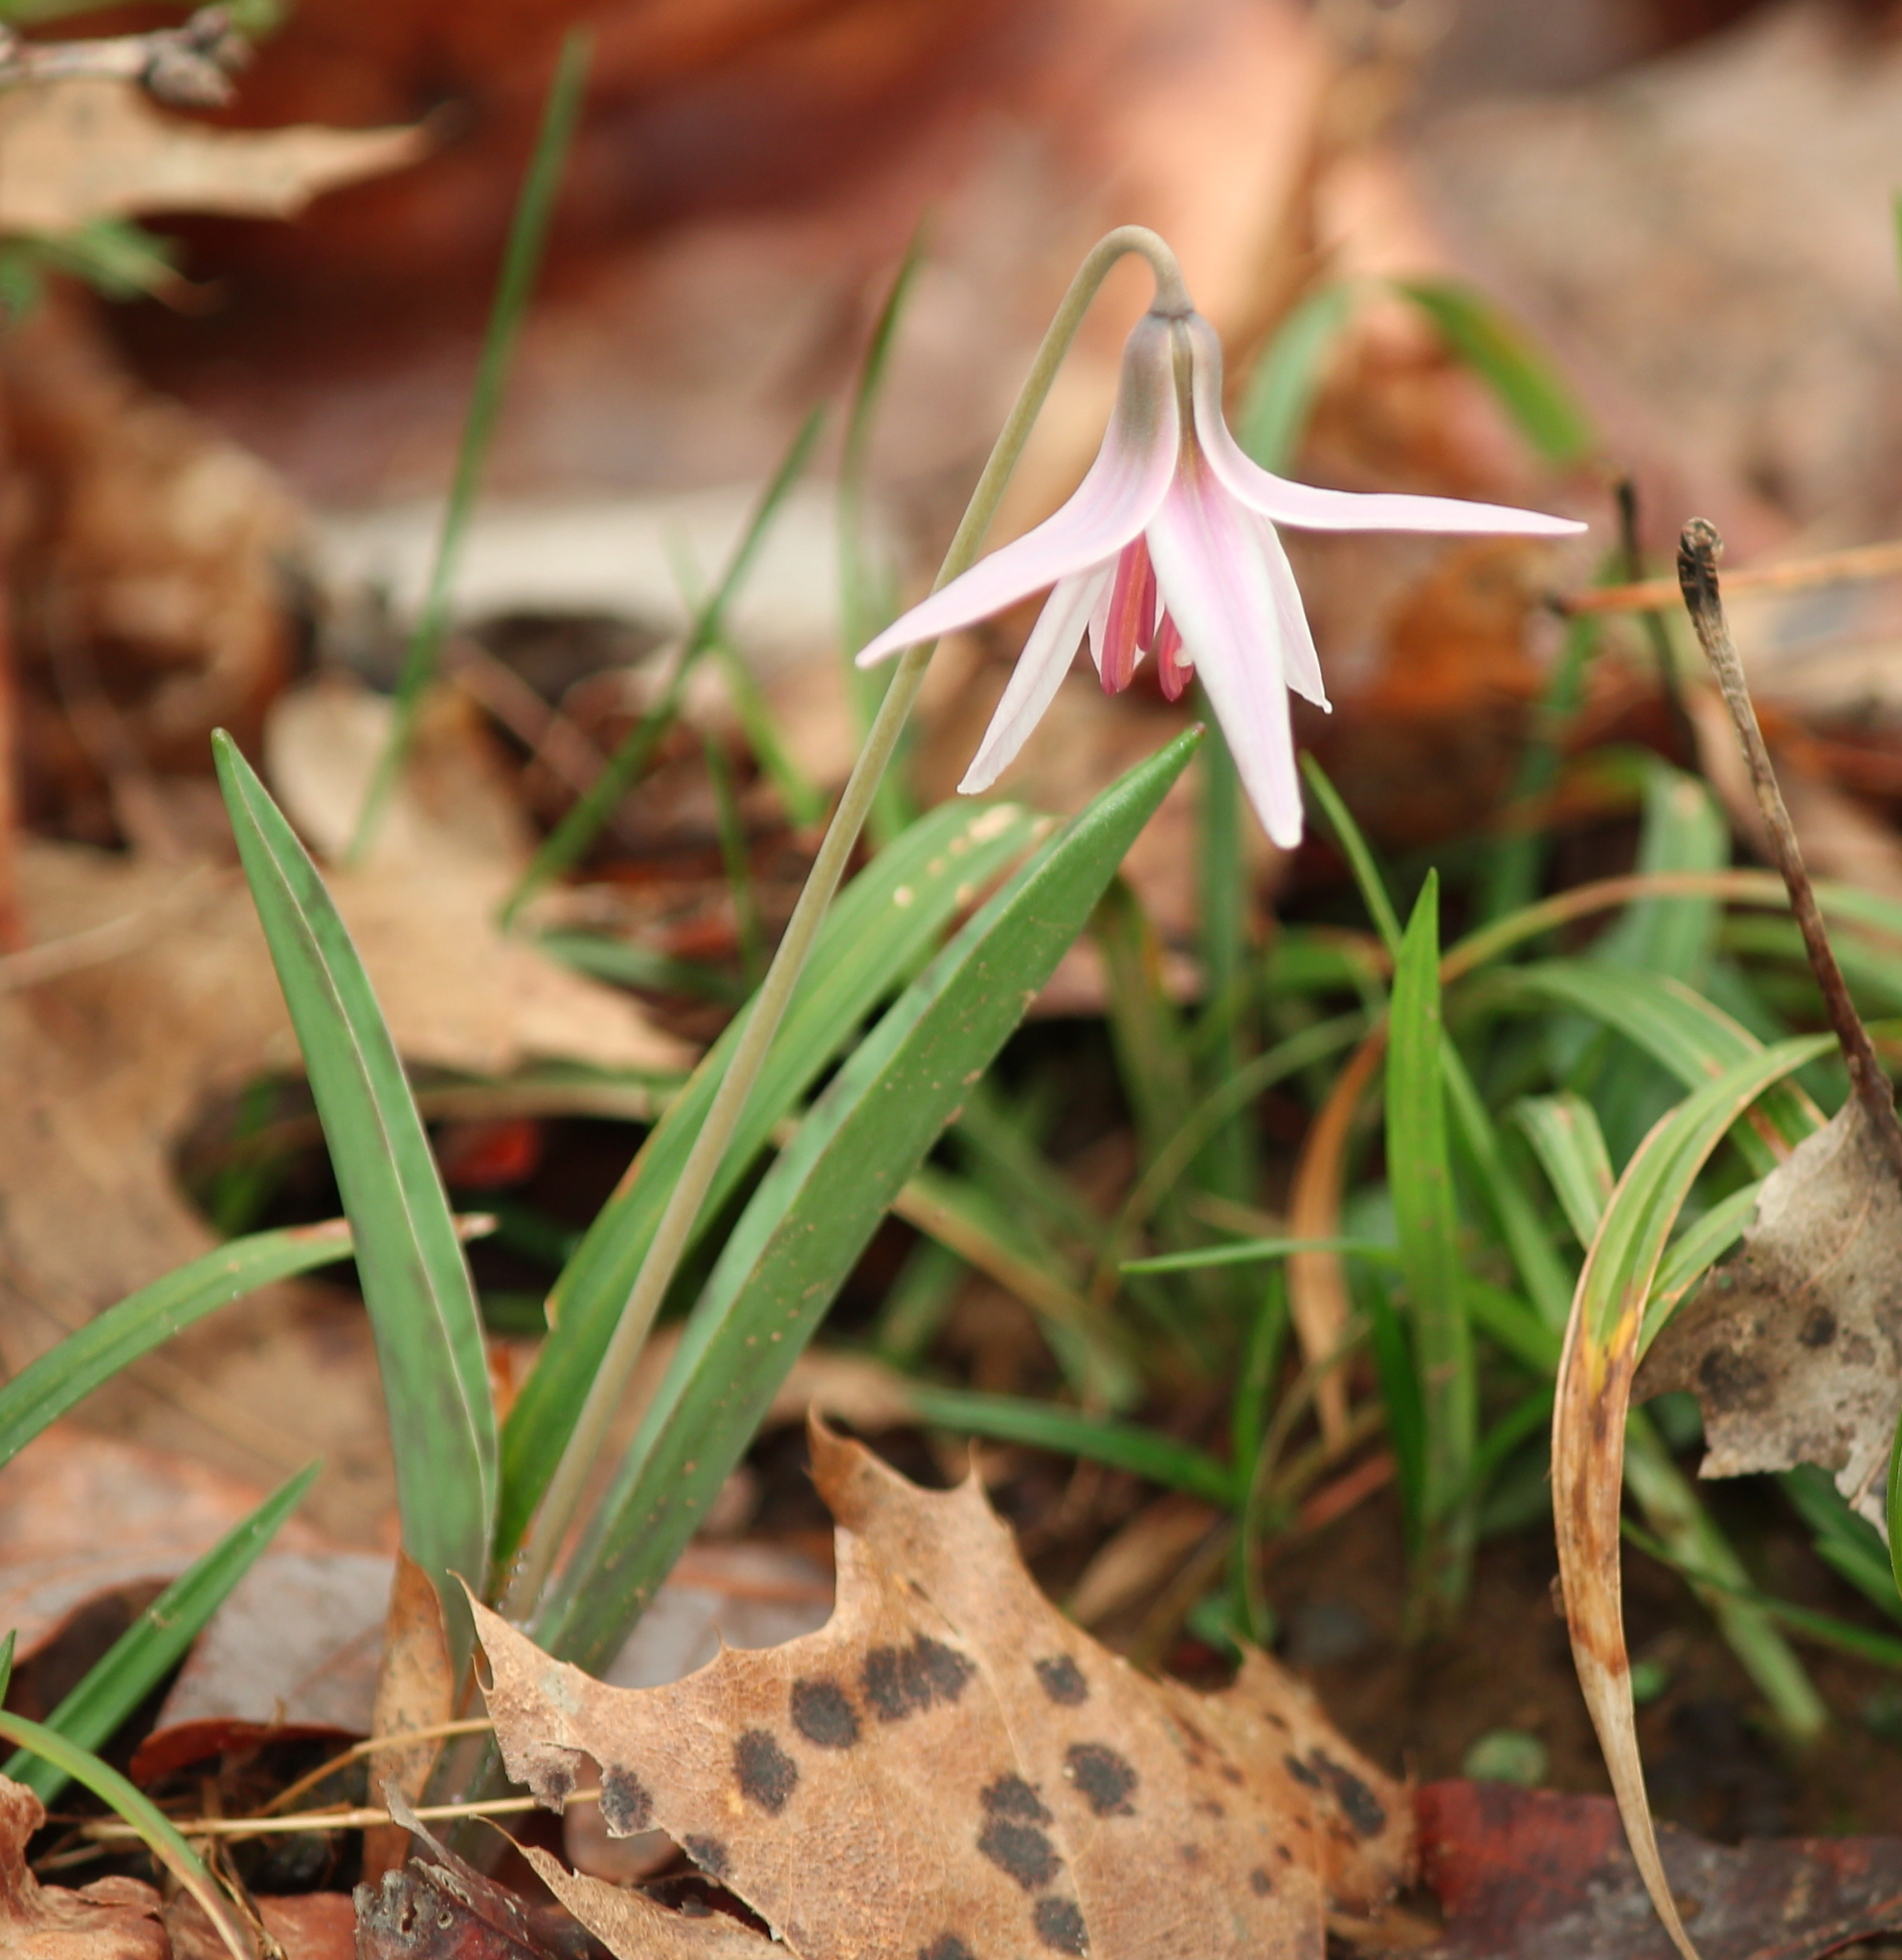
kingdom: Plantae
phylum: Tracheophyta
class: Liliopsida
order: Liliales
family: Liliaceae
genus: Erythronium
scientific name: Erythronium albidum
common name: White trout-lily
